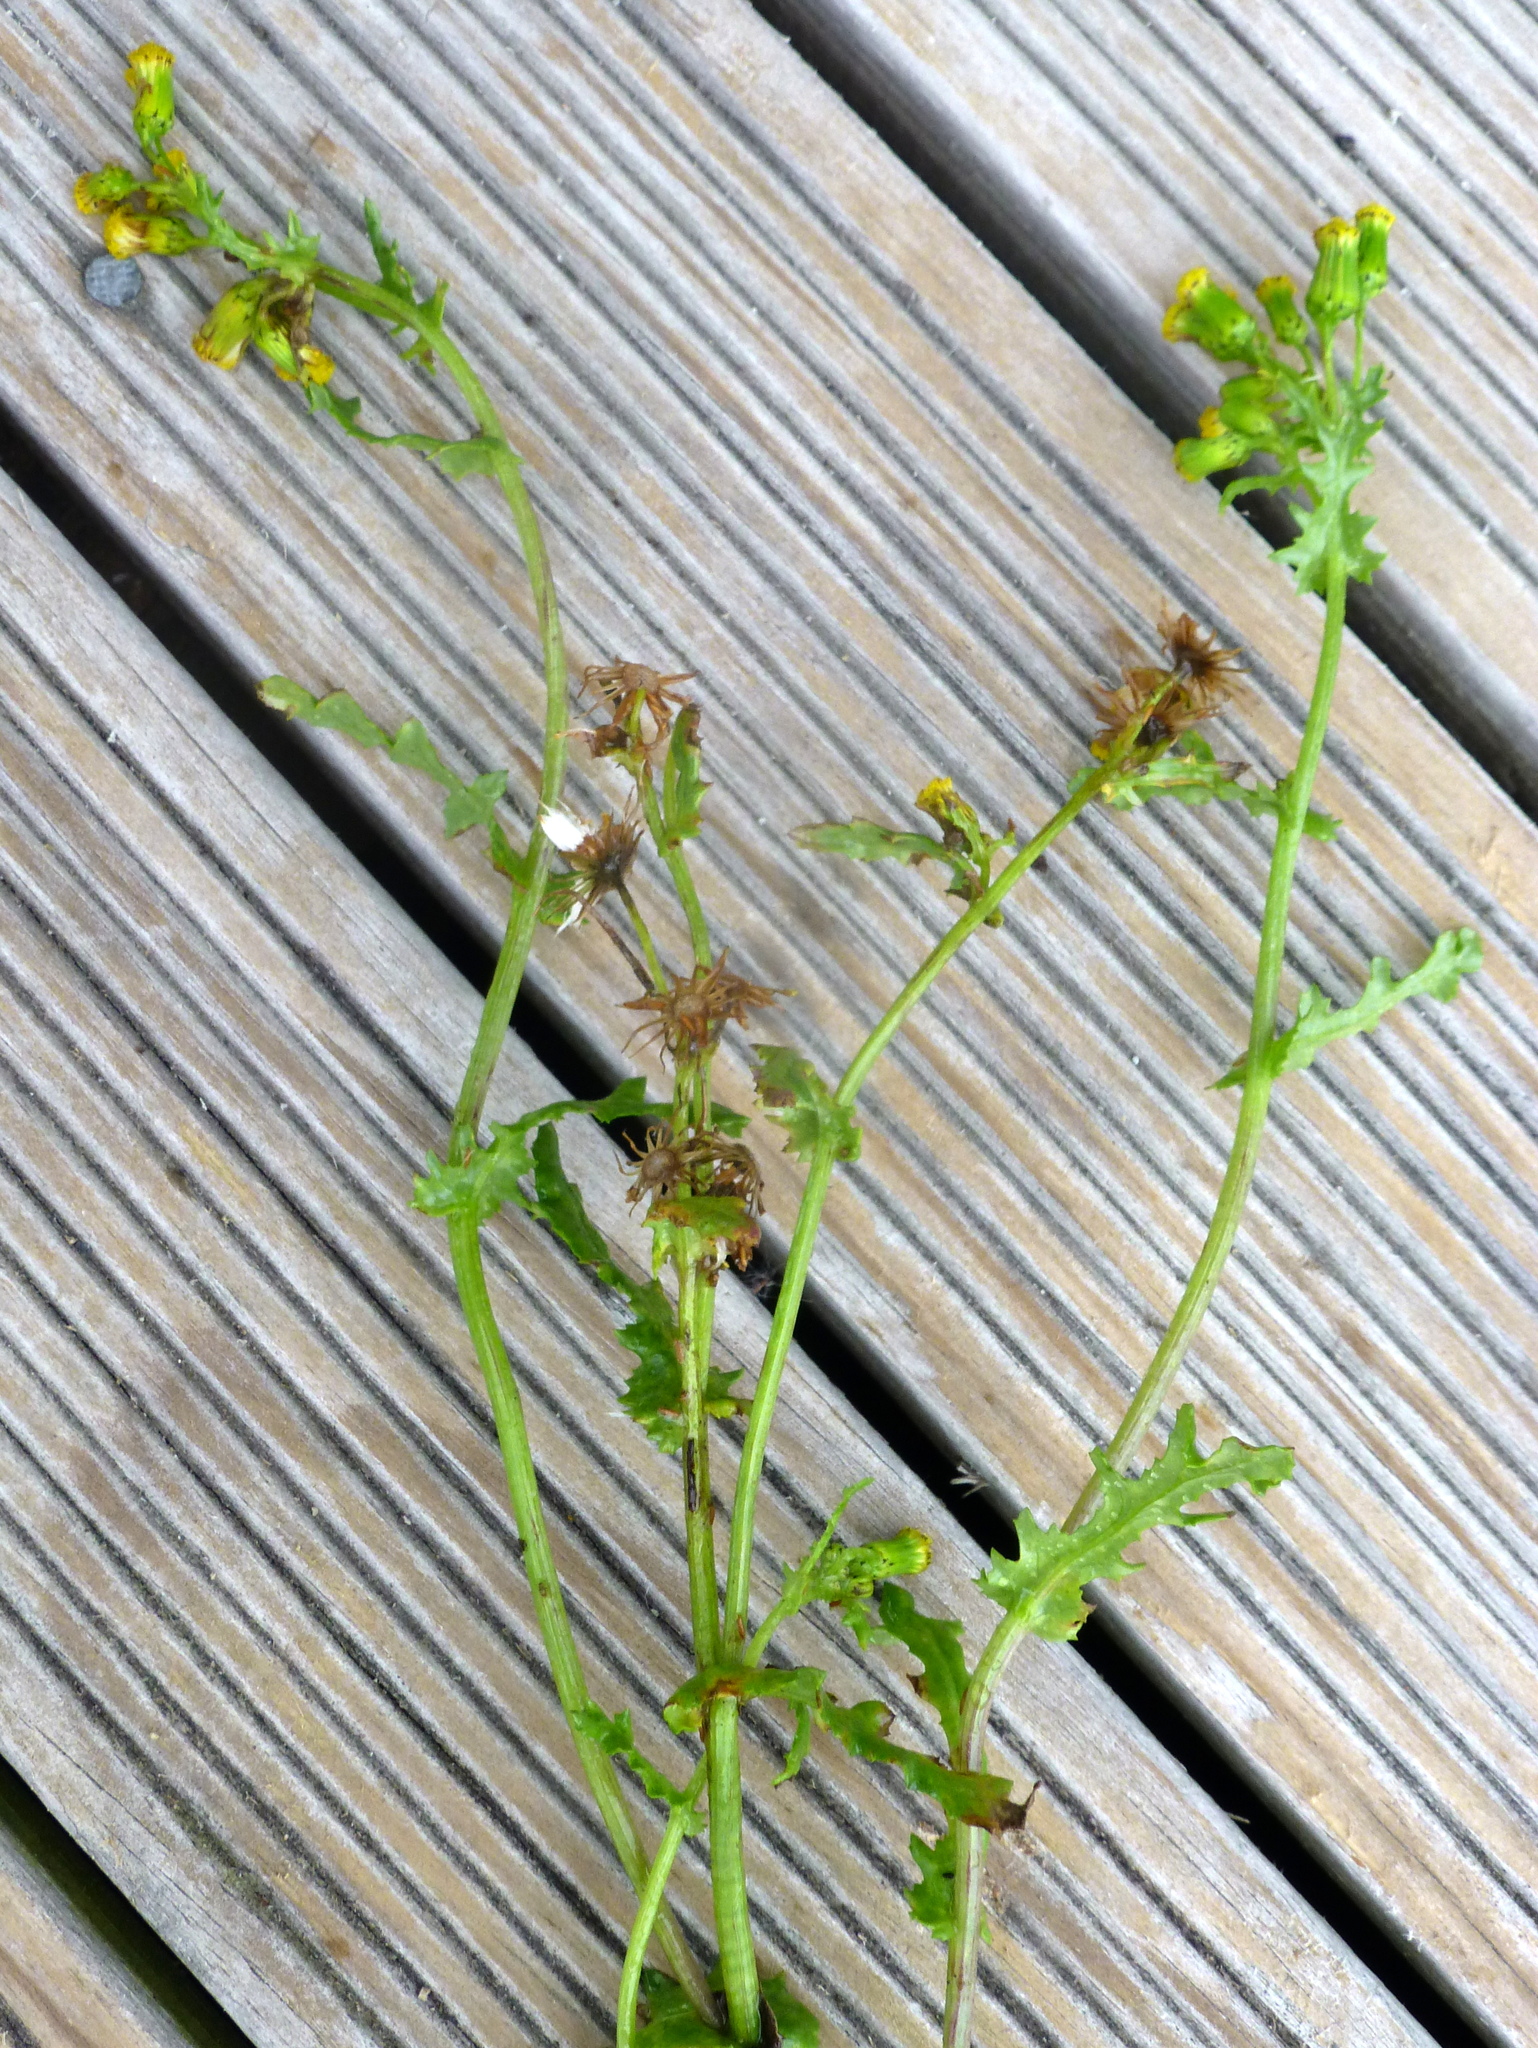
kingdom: Plantae
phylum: Tracheophyta
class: Magnoliopsida
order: Asterales
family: Asteraceae
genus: Senecio
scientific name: Senecio vulgaris
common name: Old-man-in-the-spring
